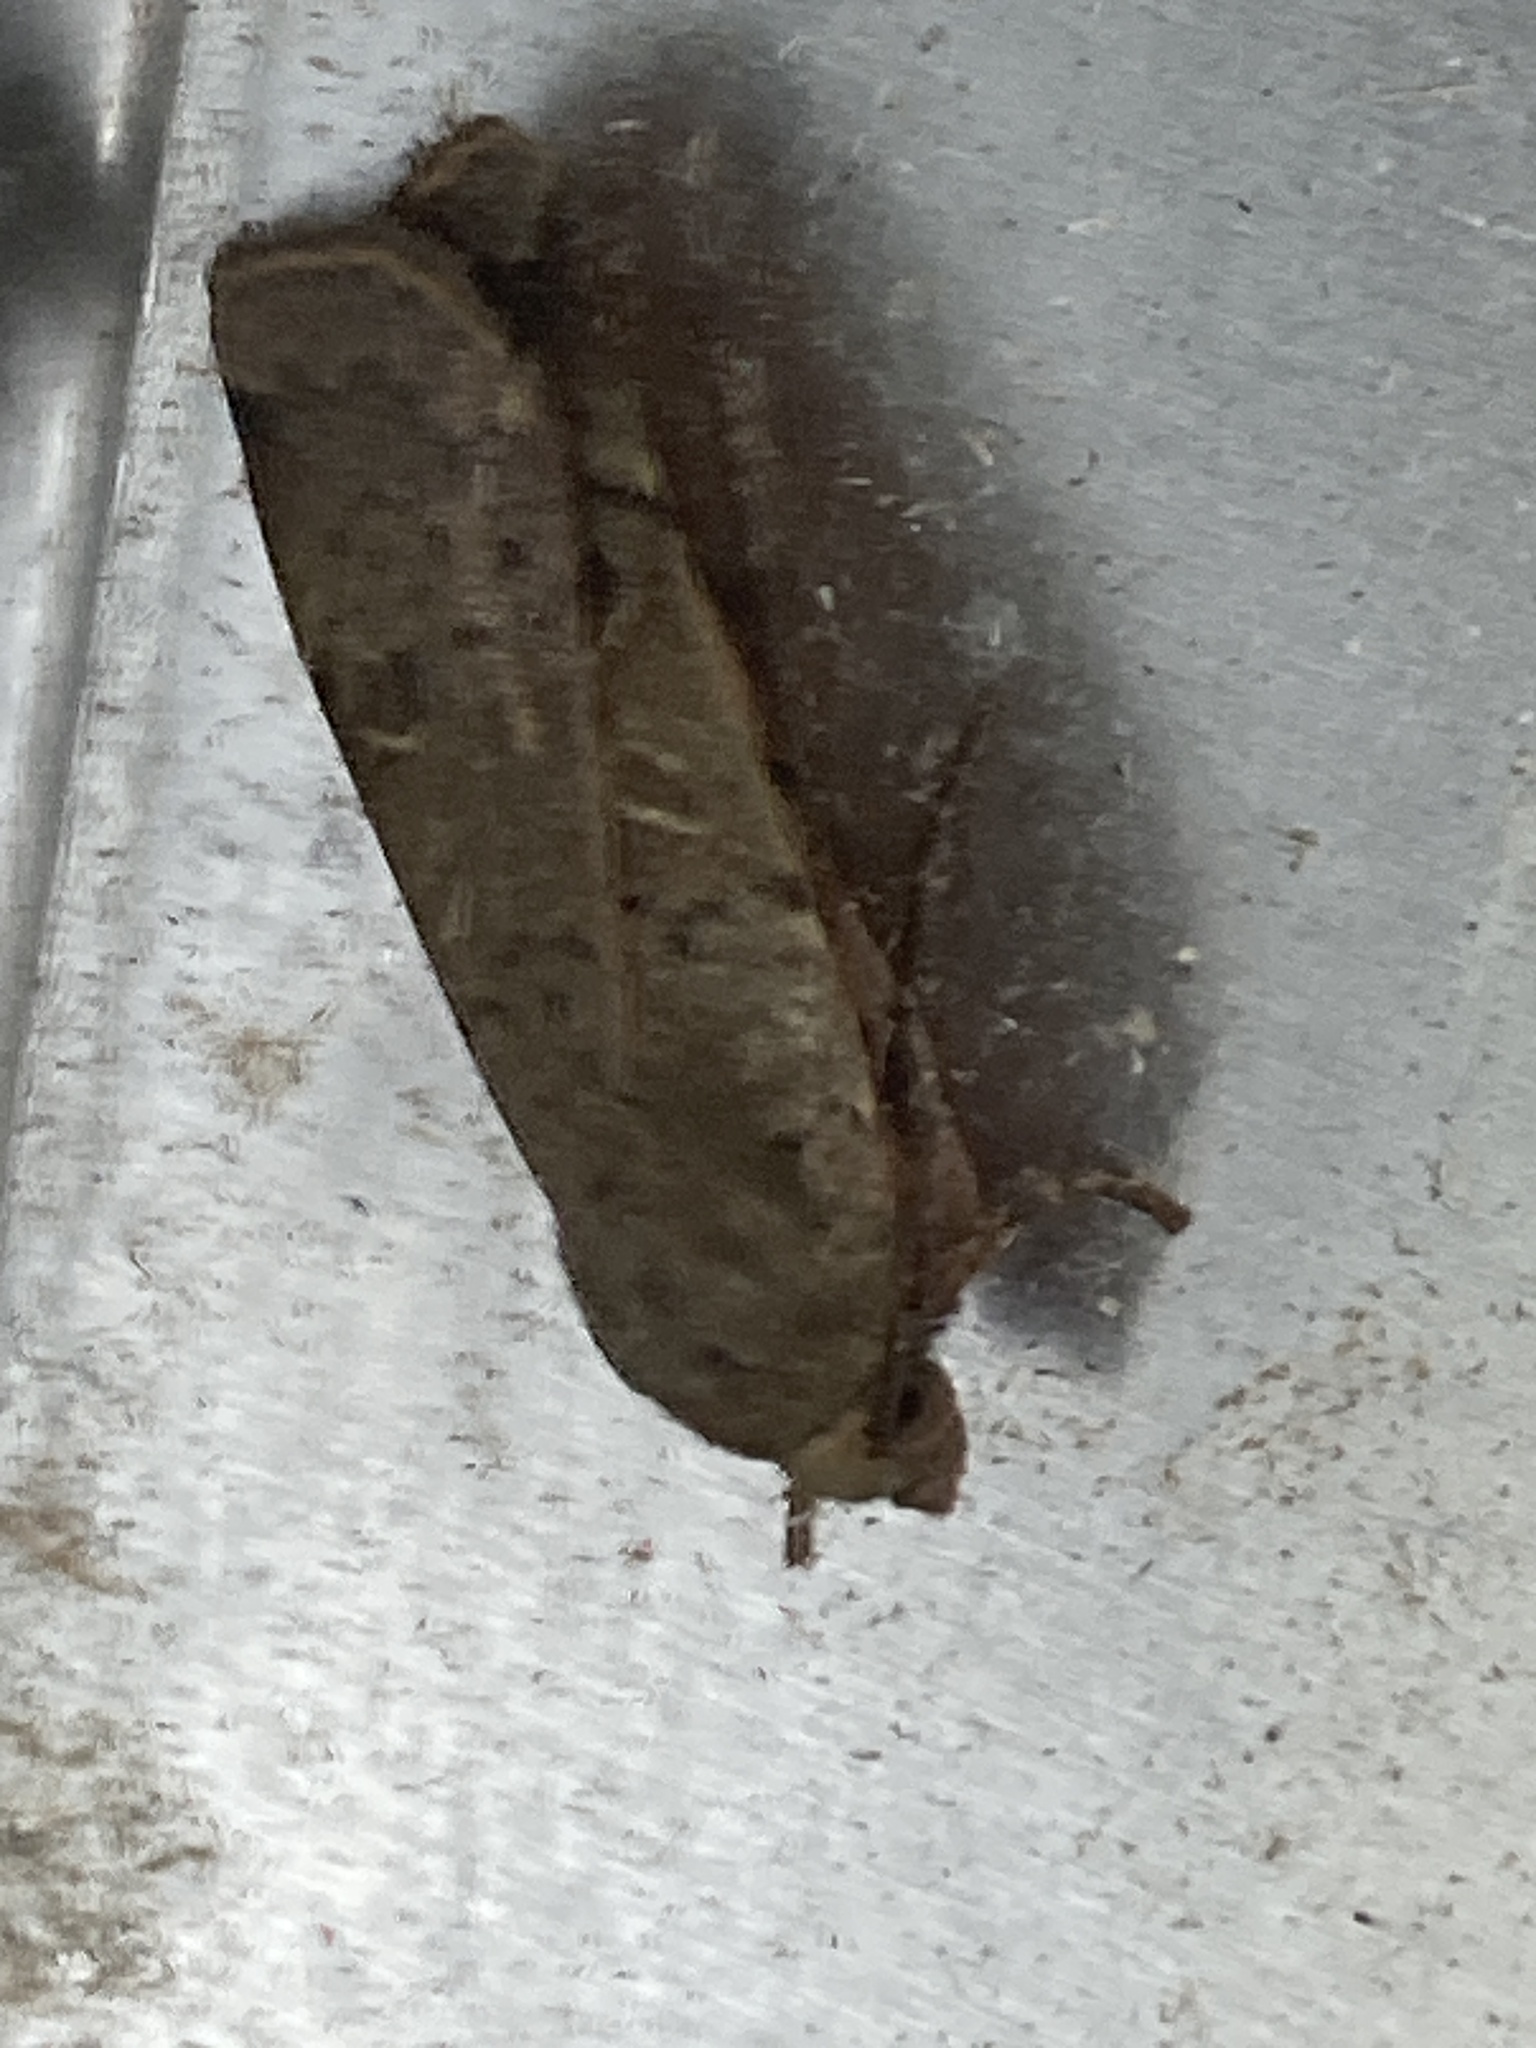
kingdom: Animalia
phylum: Arthropoda
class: Insecta
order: Lepidoptera
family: Noctuidae
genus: Noctua
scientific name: Noctua comes
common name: Lesser yellow underwing
